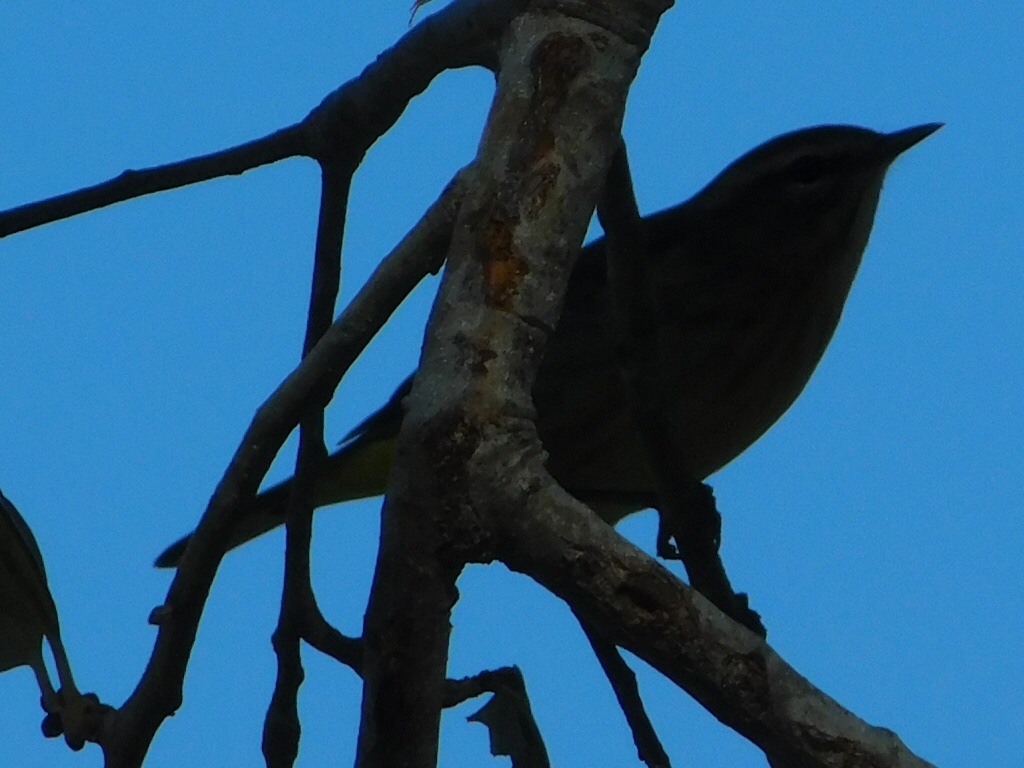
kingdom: Animalia
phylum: Chordata
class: Aves
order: Passeriformes
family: Parulidae
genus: Setophaga
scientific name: Setophaga palmarum
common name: Palm warbler
